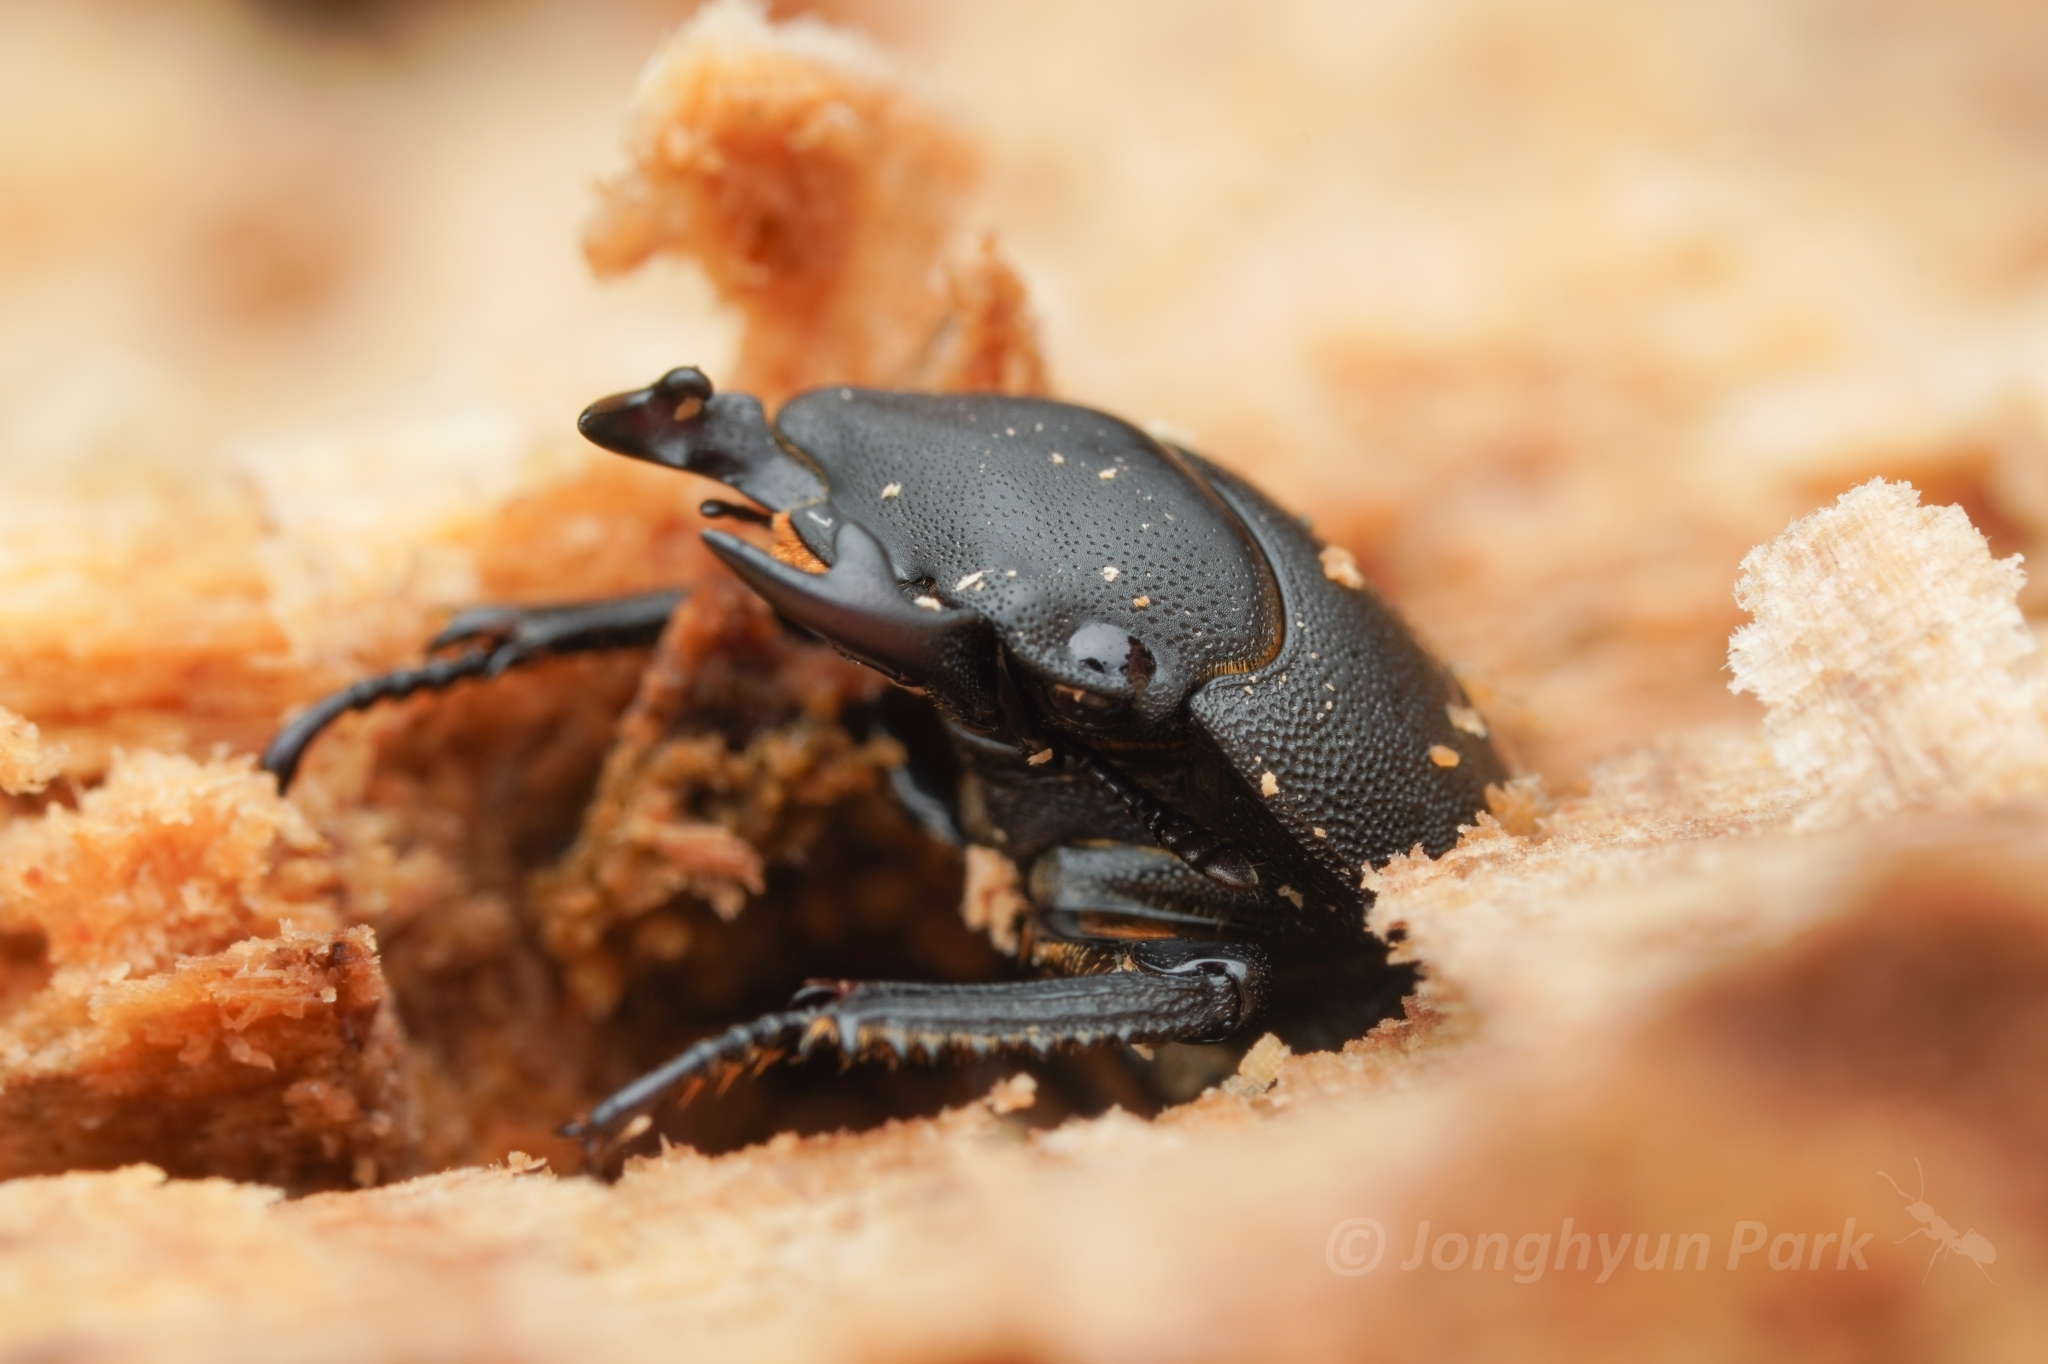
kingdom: Animalia
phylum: Arthropoda
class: Insecta
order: Coleoptera
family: Lucanidae
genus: Dorcus
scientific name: Dorcus parallelipipedus
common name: Lesser stag beetle
